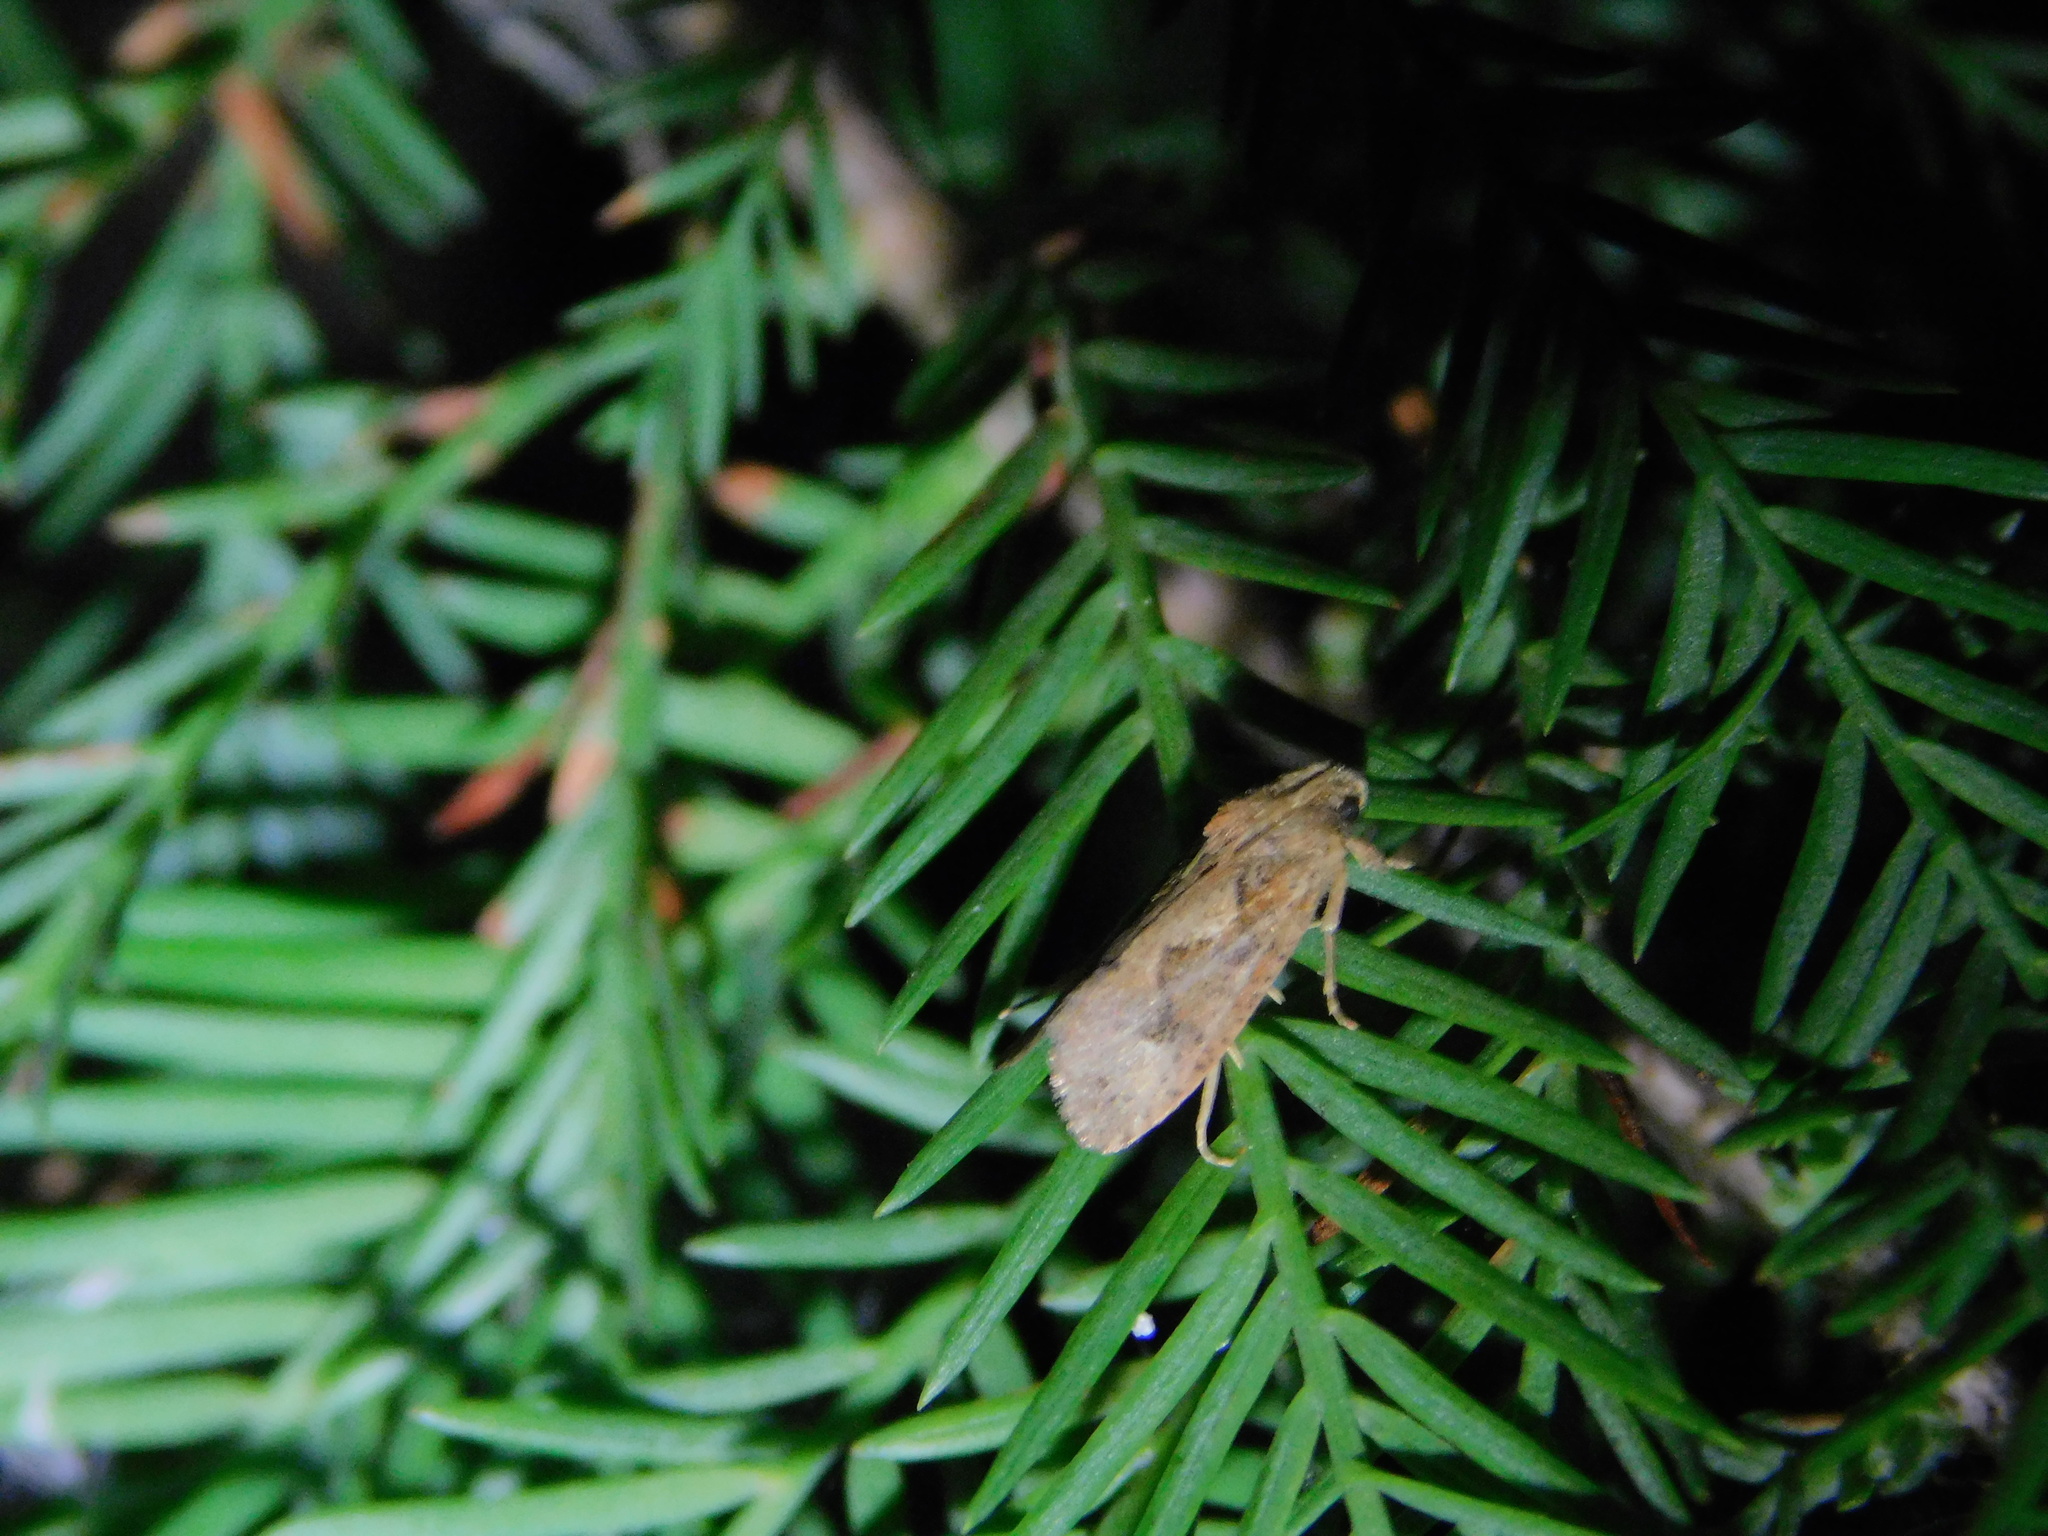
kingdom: Animalia
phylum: Arthropoda
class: Insecta
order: Lepidoptera
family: Tineidae
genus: Acrolophus
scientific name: Acrolophus walsinghami
